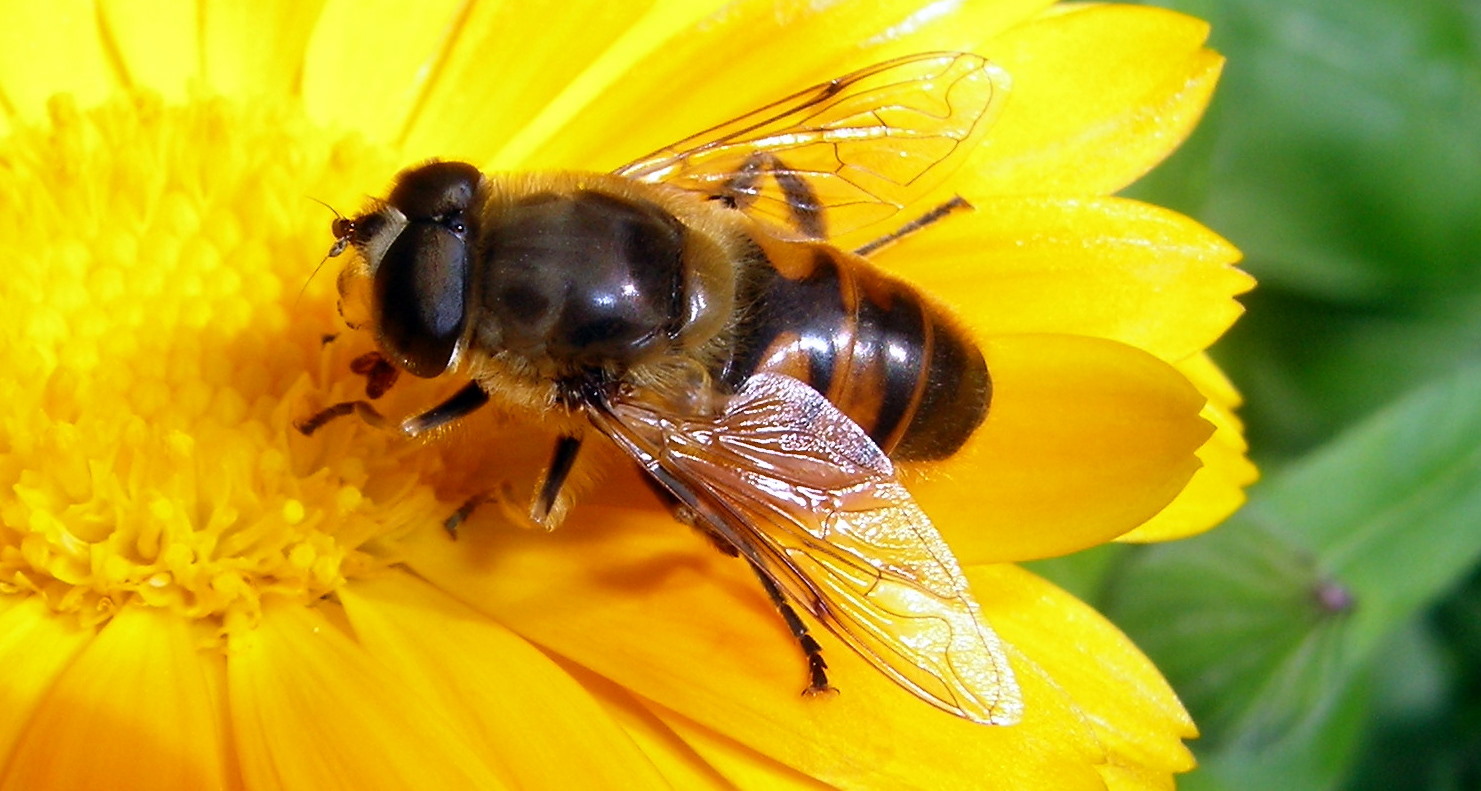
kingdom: Animalia
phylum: Arthropoda
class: Insecta
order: Diptera
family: Syrphidae
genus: Eristalis
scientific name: Eristalis tenax
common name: Drone fly
